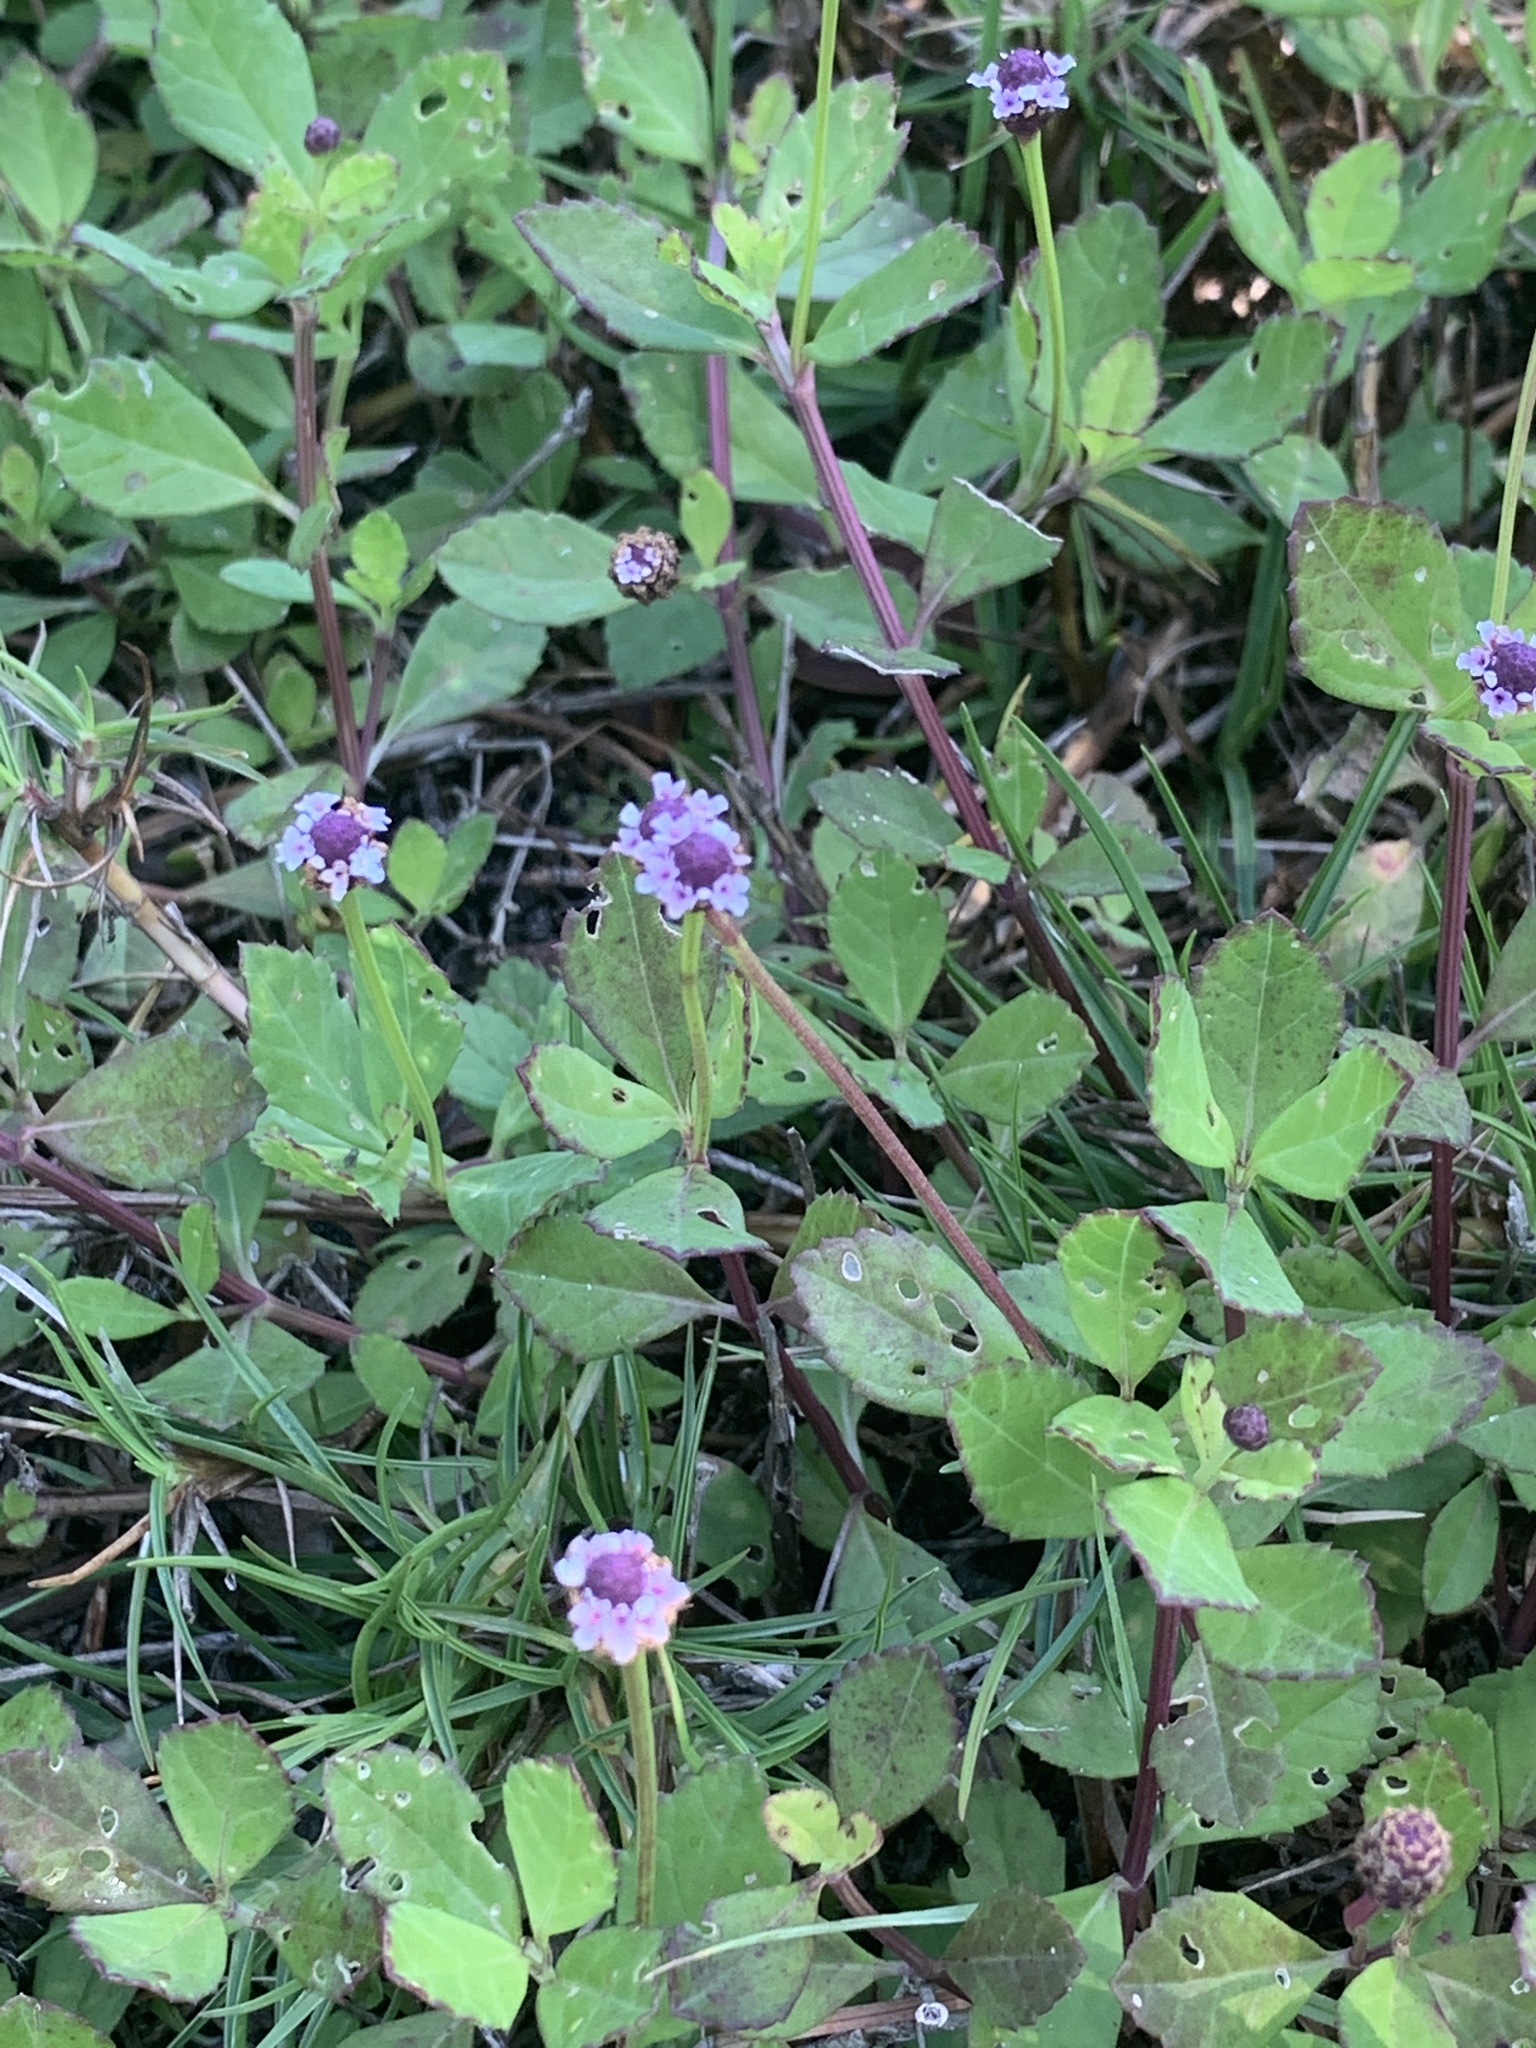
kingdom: Plantae
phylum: Tracheophyta
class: Magnoliopsida
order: Lamiales
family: Verbenaceae
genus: Phyla
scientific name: Phyla nodiflora
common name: Frogfruit
